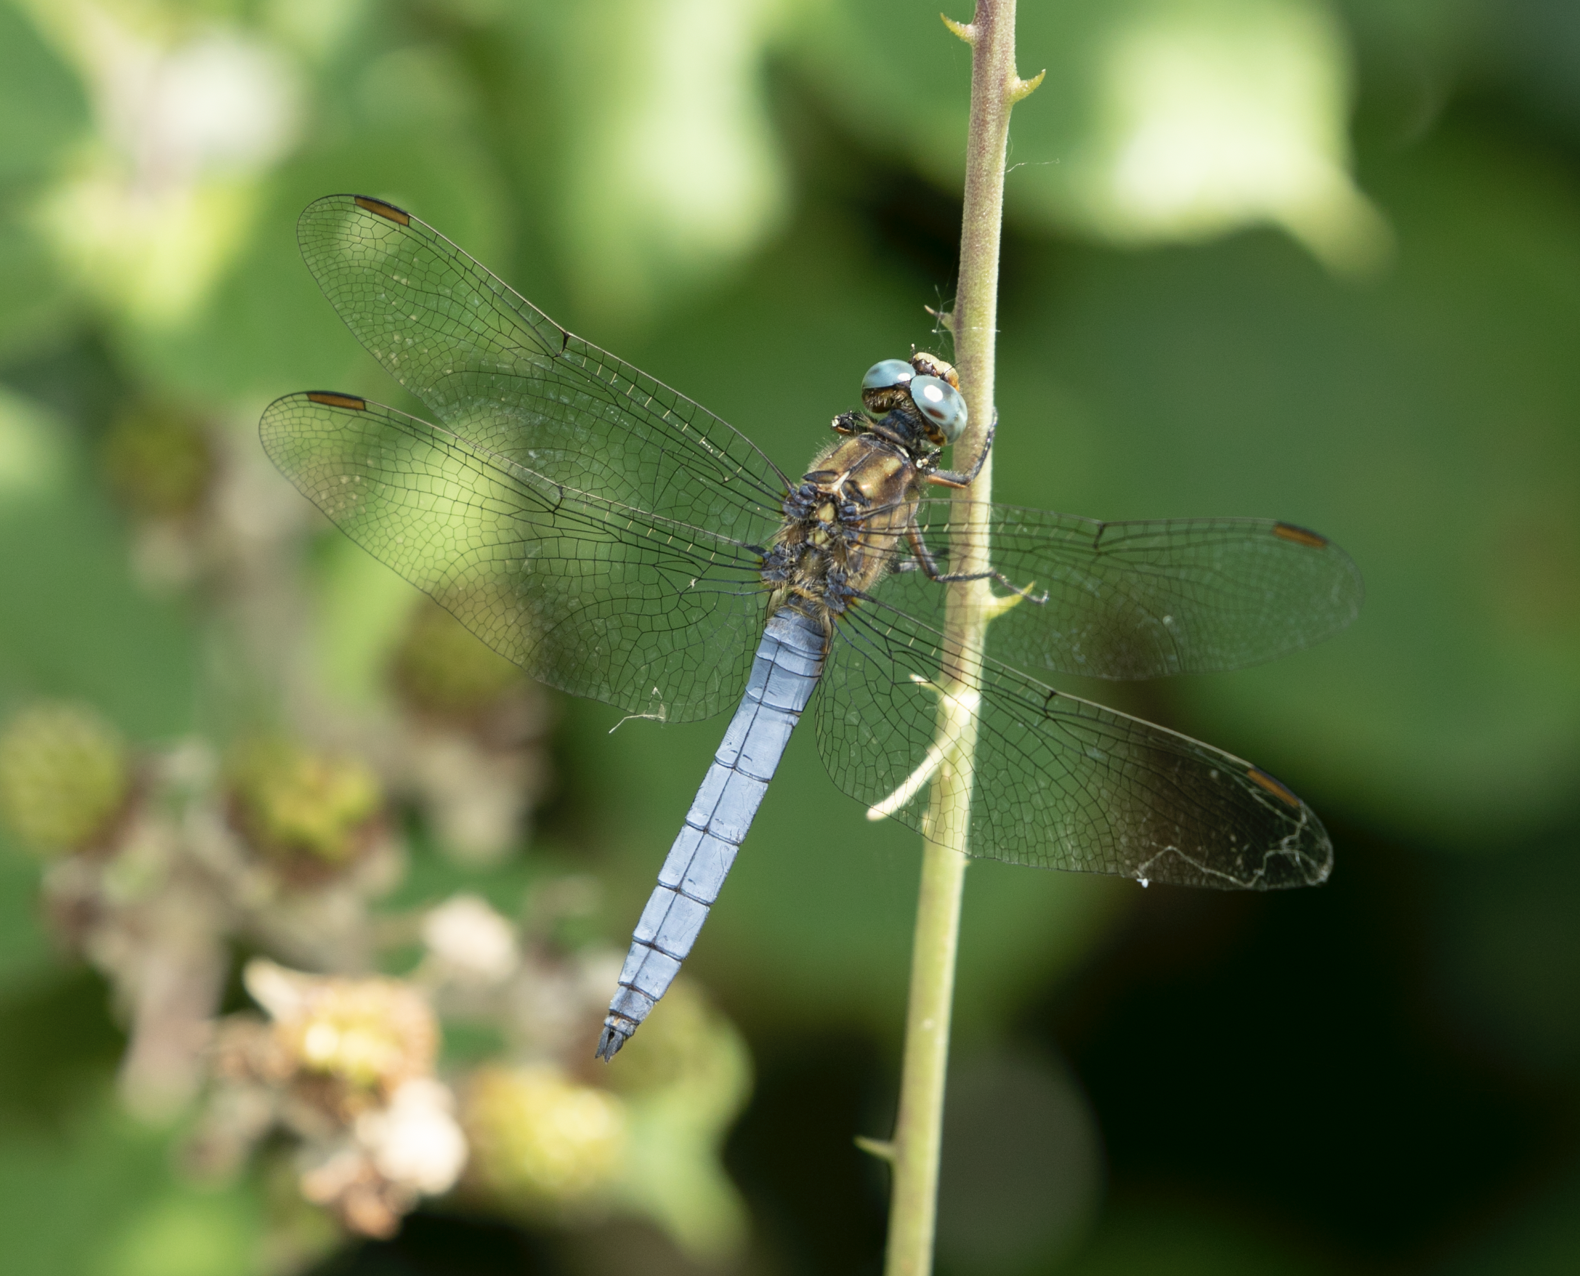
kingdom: Animalia
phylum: Arthropoda
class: Insecta
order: Odonata
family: Libellulidae
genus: Orthetrum
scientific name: Orthetrum coerulescens
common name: Keeled skimmer
